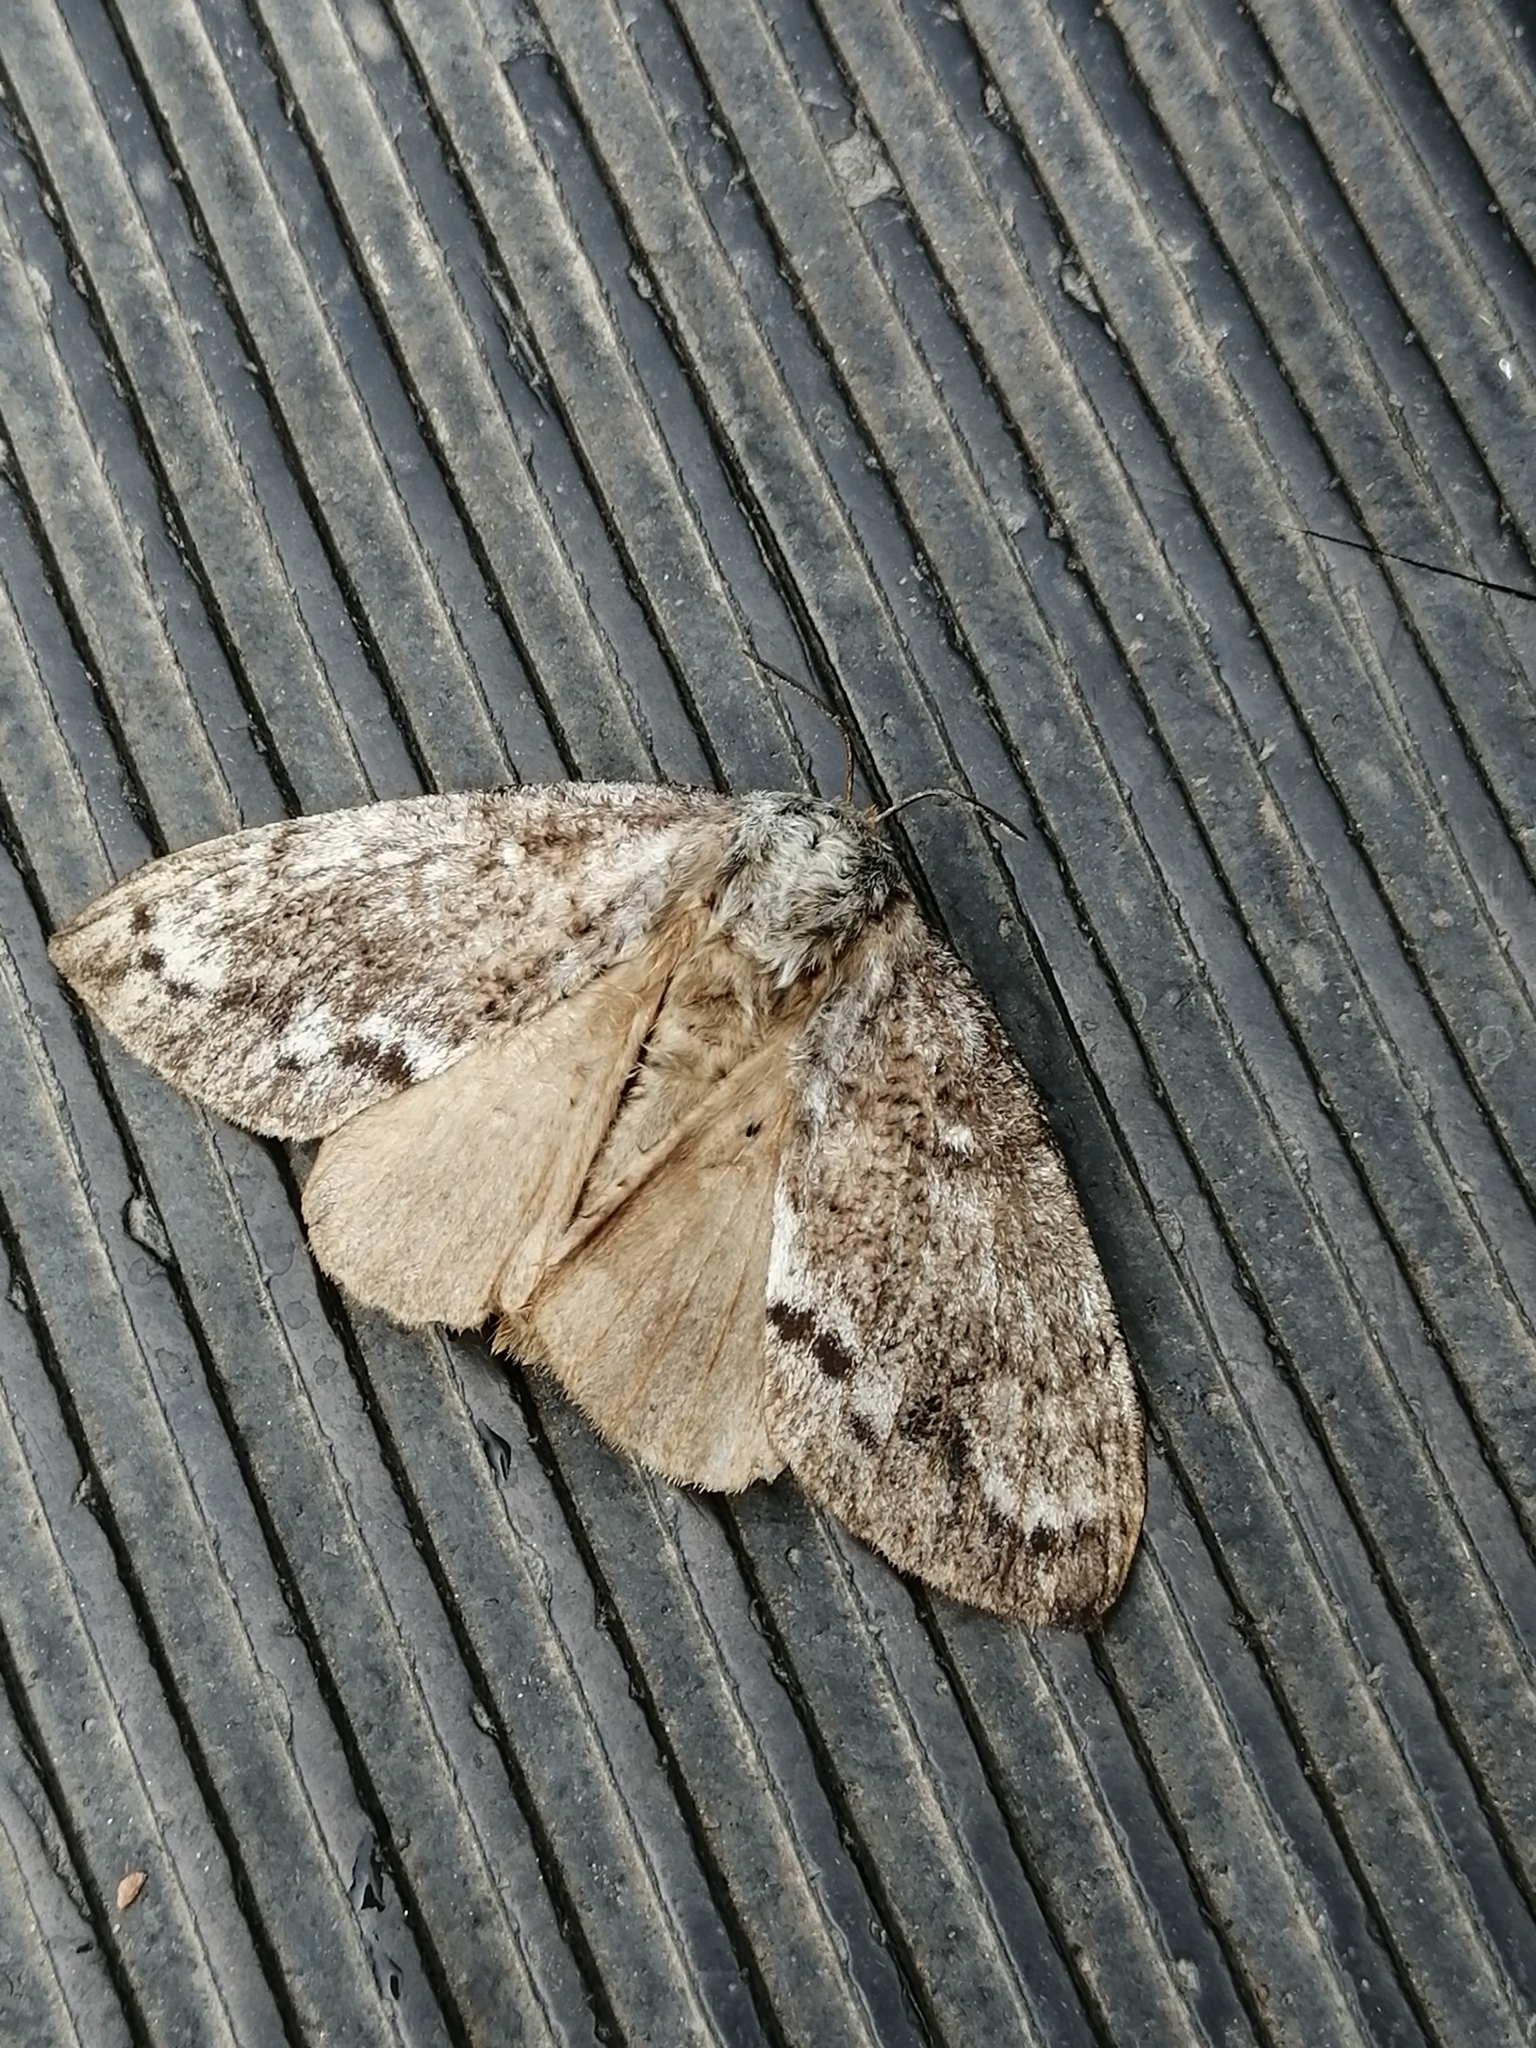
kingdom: Animalia
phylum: Arthropoda
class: Insecta
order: Lepidoptera
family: Lasiocampidae
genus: Dendrolimus
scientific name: Dendrolimus superans
